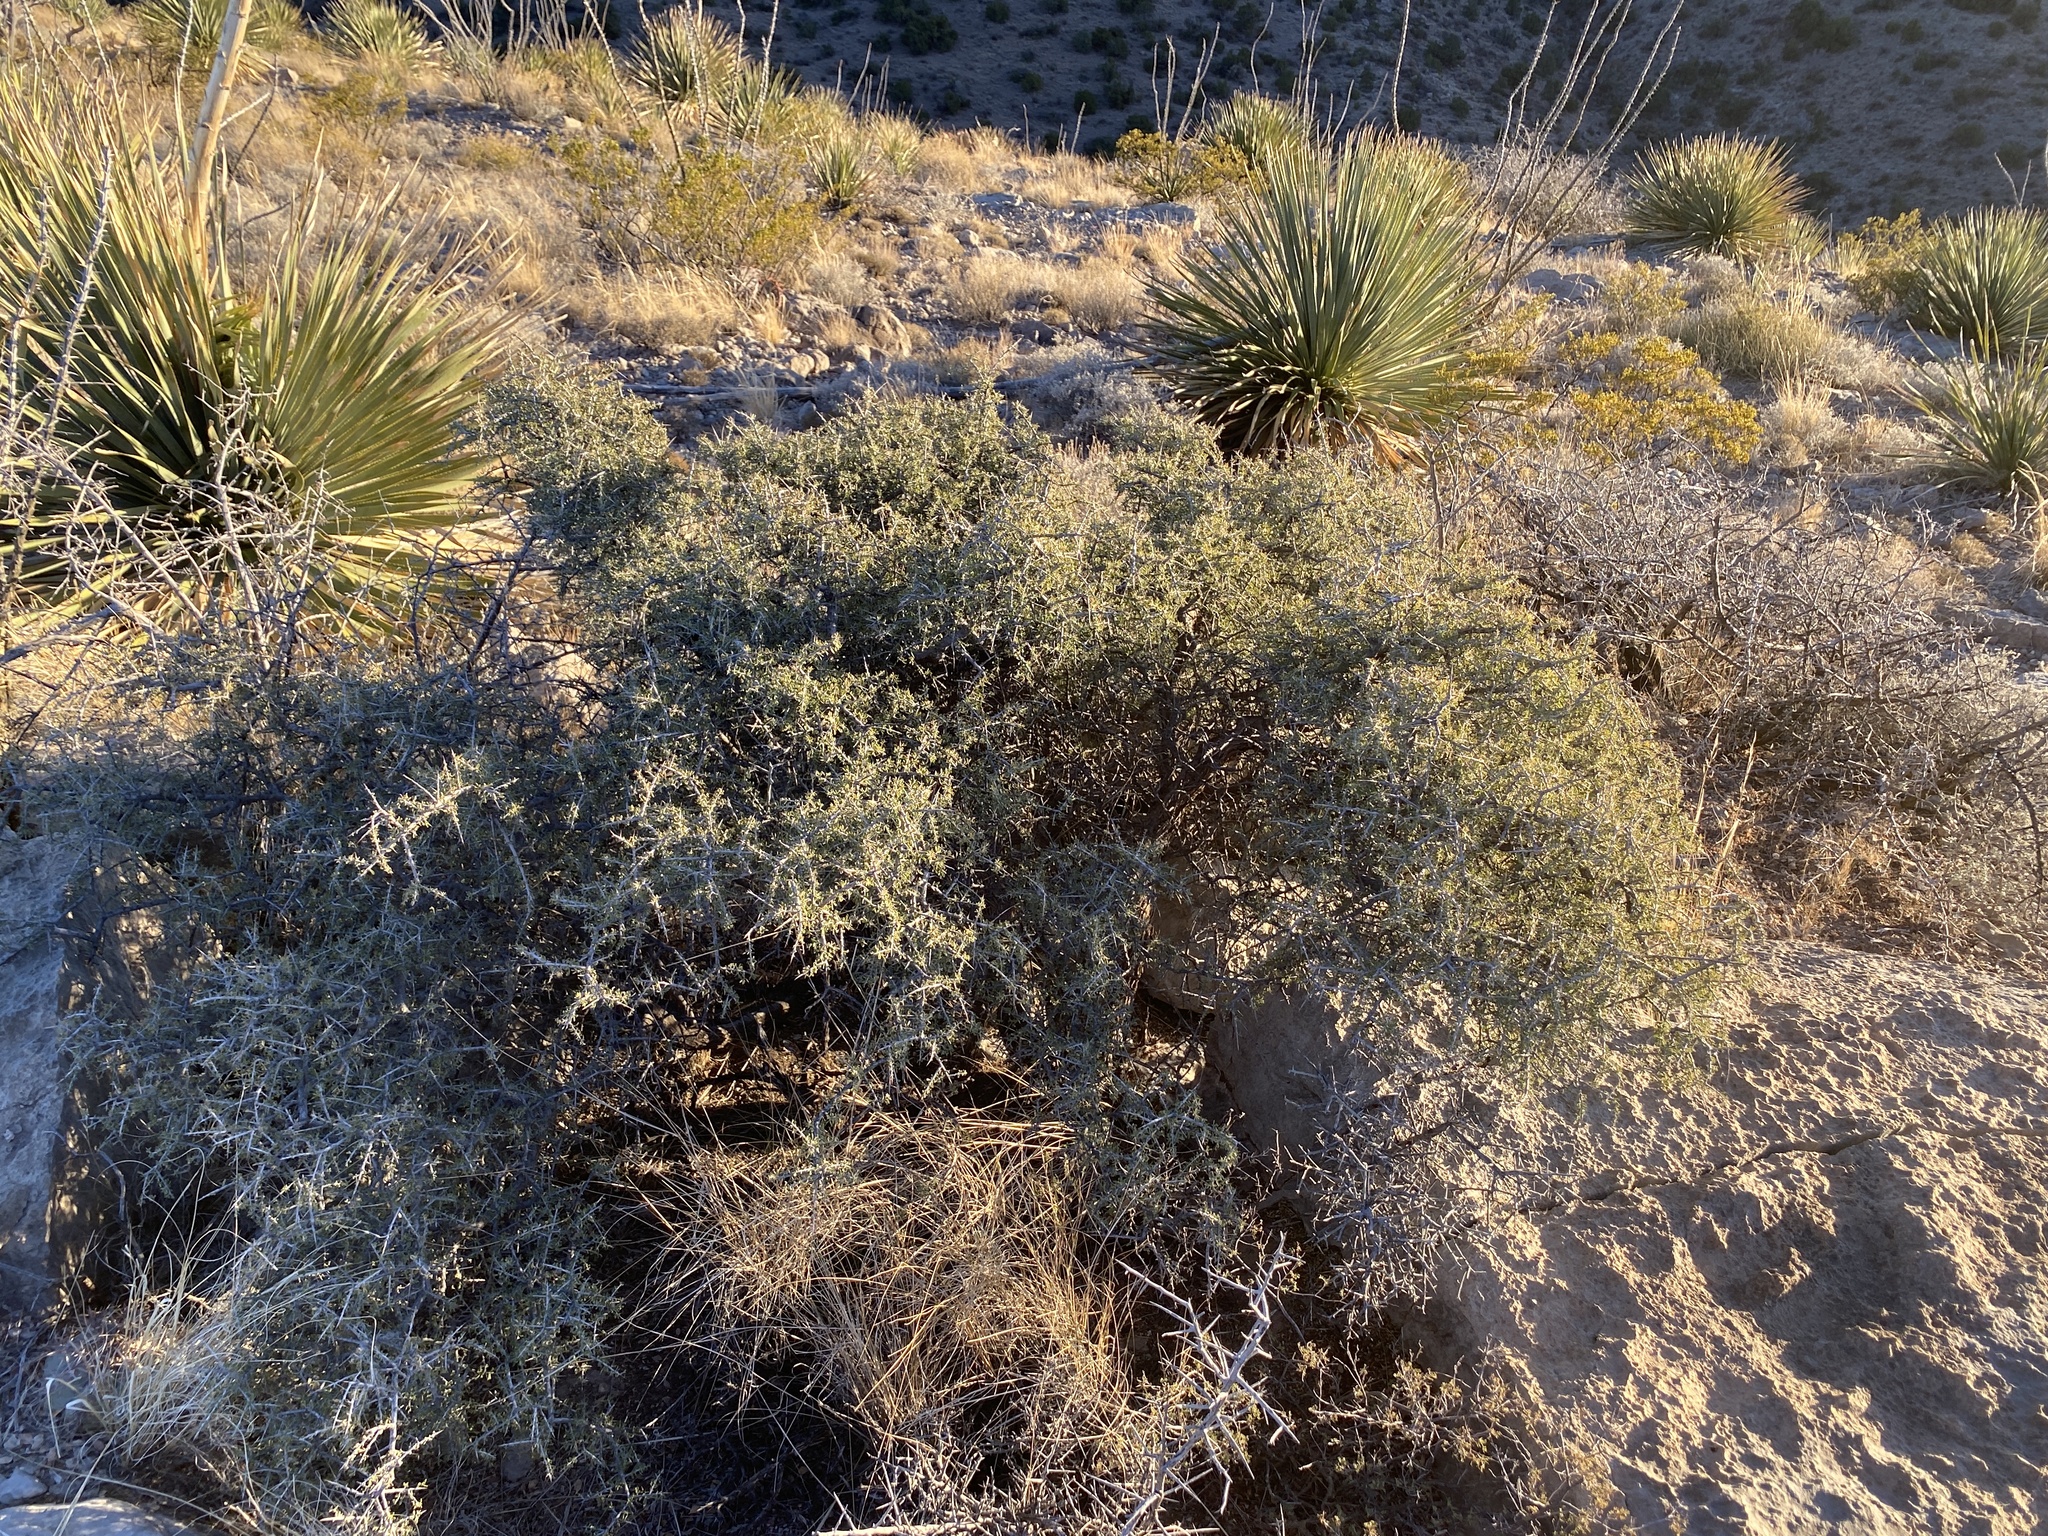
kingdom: Plantae
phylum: Tracheophyta
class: Magnoliopsida
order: Rosales
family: Rhamnaceae
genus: Condalia
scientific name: Condalia warnockii
